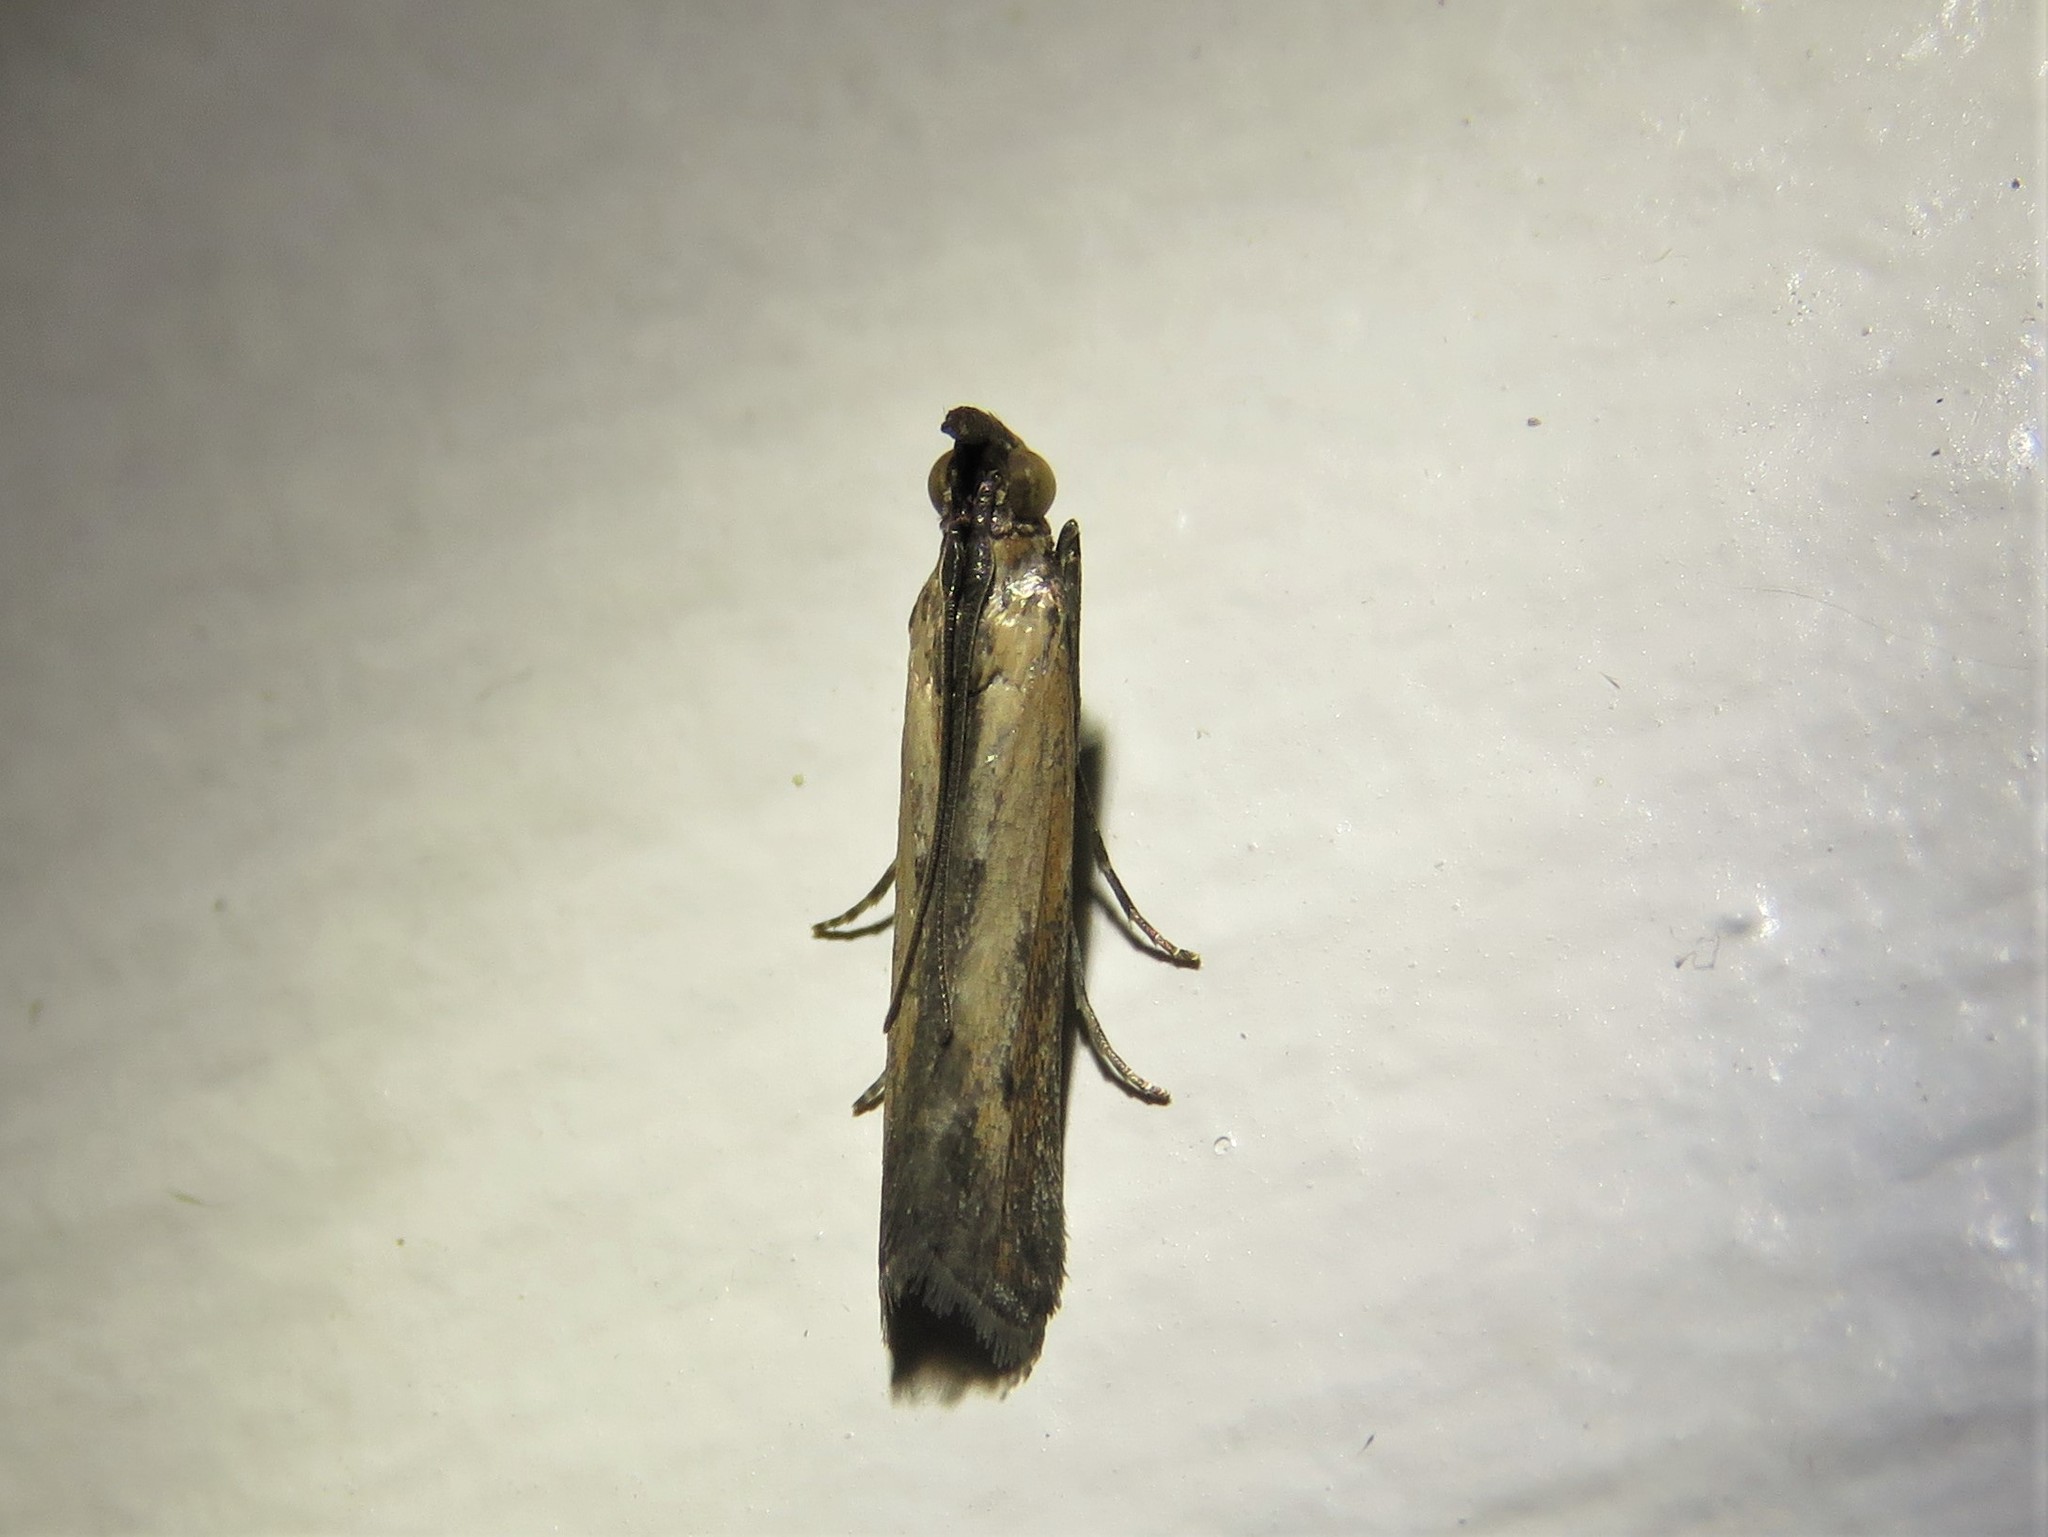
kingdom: Animalia
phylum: Arthropoda
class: Insecta
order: Lepidoptera
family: Pyralidae
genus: Elasmopalpus
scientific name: Elasmopalpus lignosella
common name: Lesser cornstalk borer
